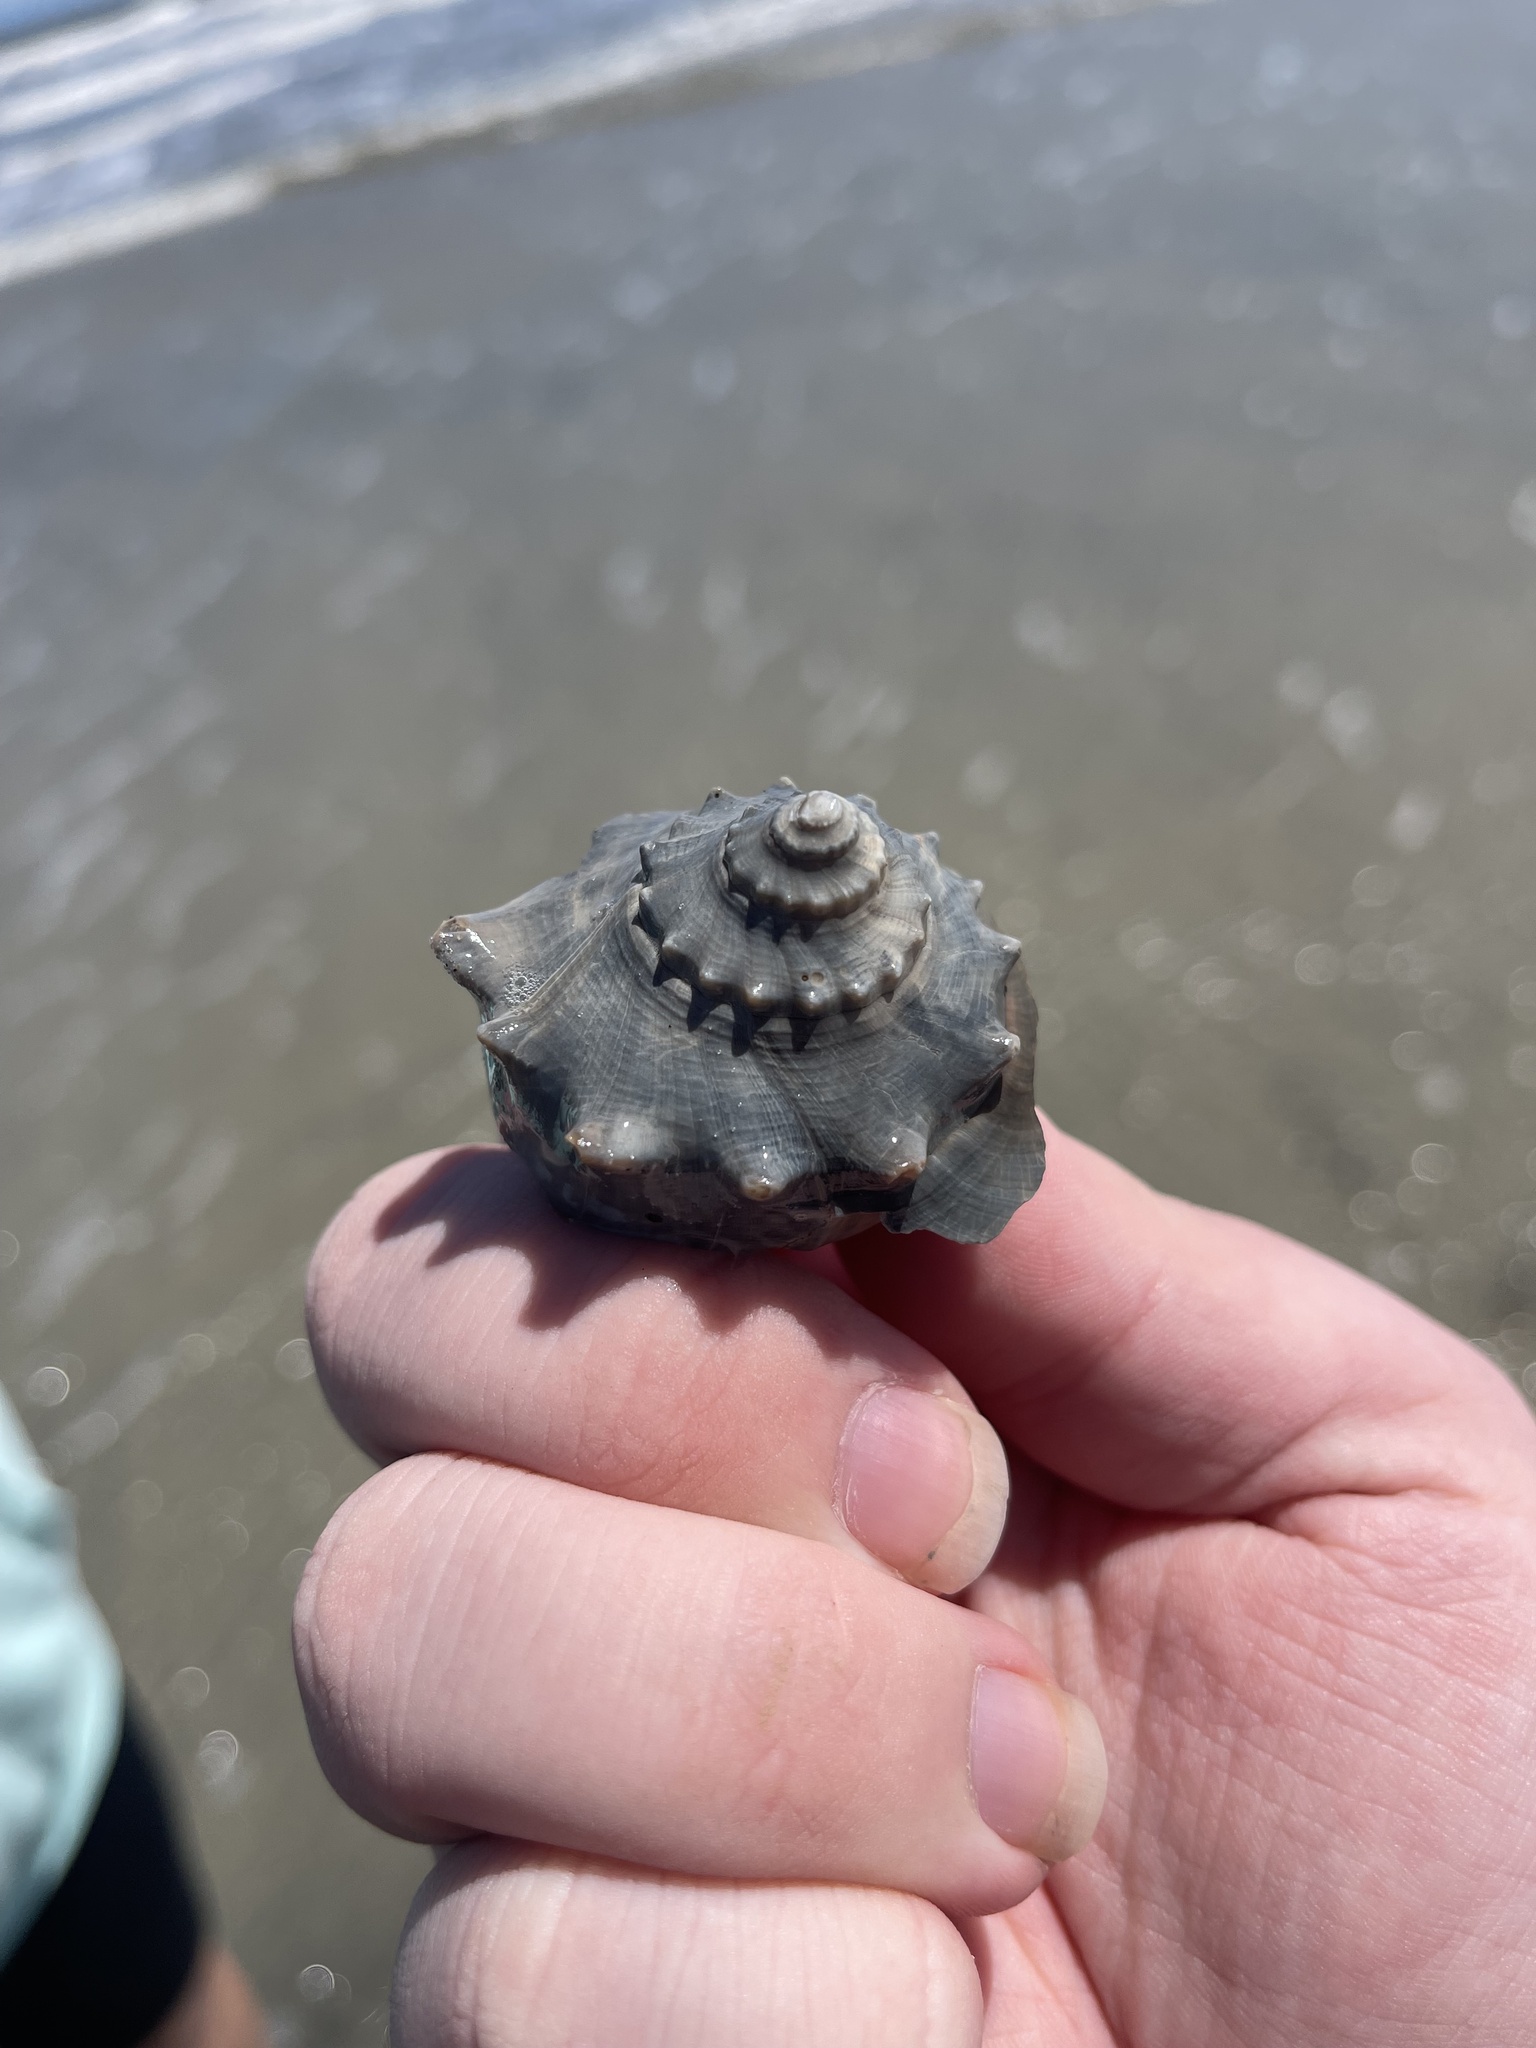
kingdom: Animalia
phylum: Mollusca
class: Gastropoda
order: Neogastropoda
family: Busyconidae
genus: Busycon
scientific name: Busycon carica
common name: Knobbed whelk
